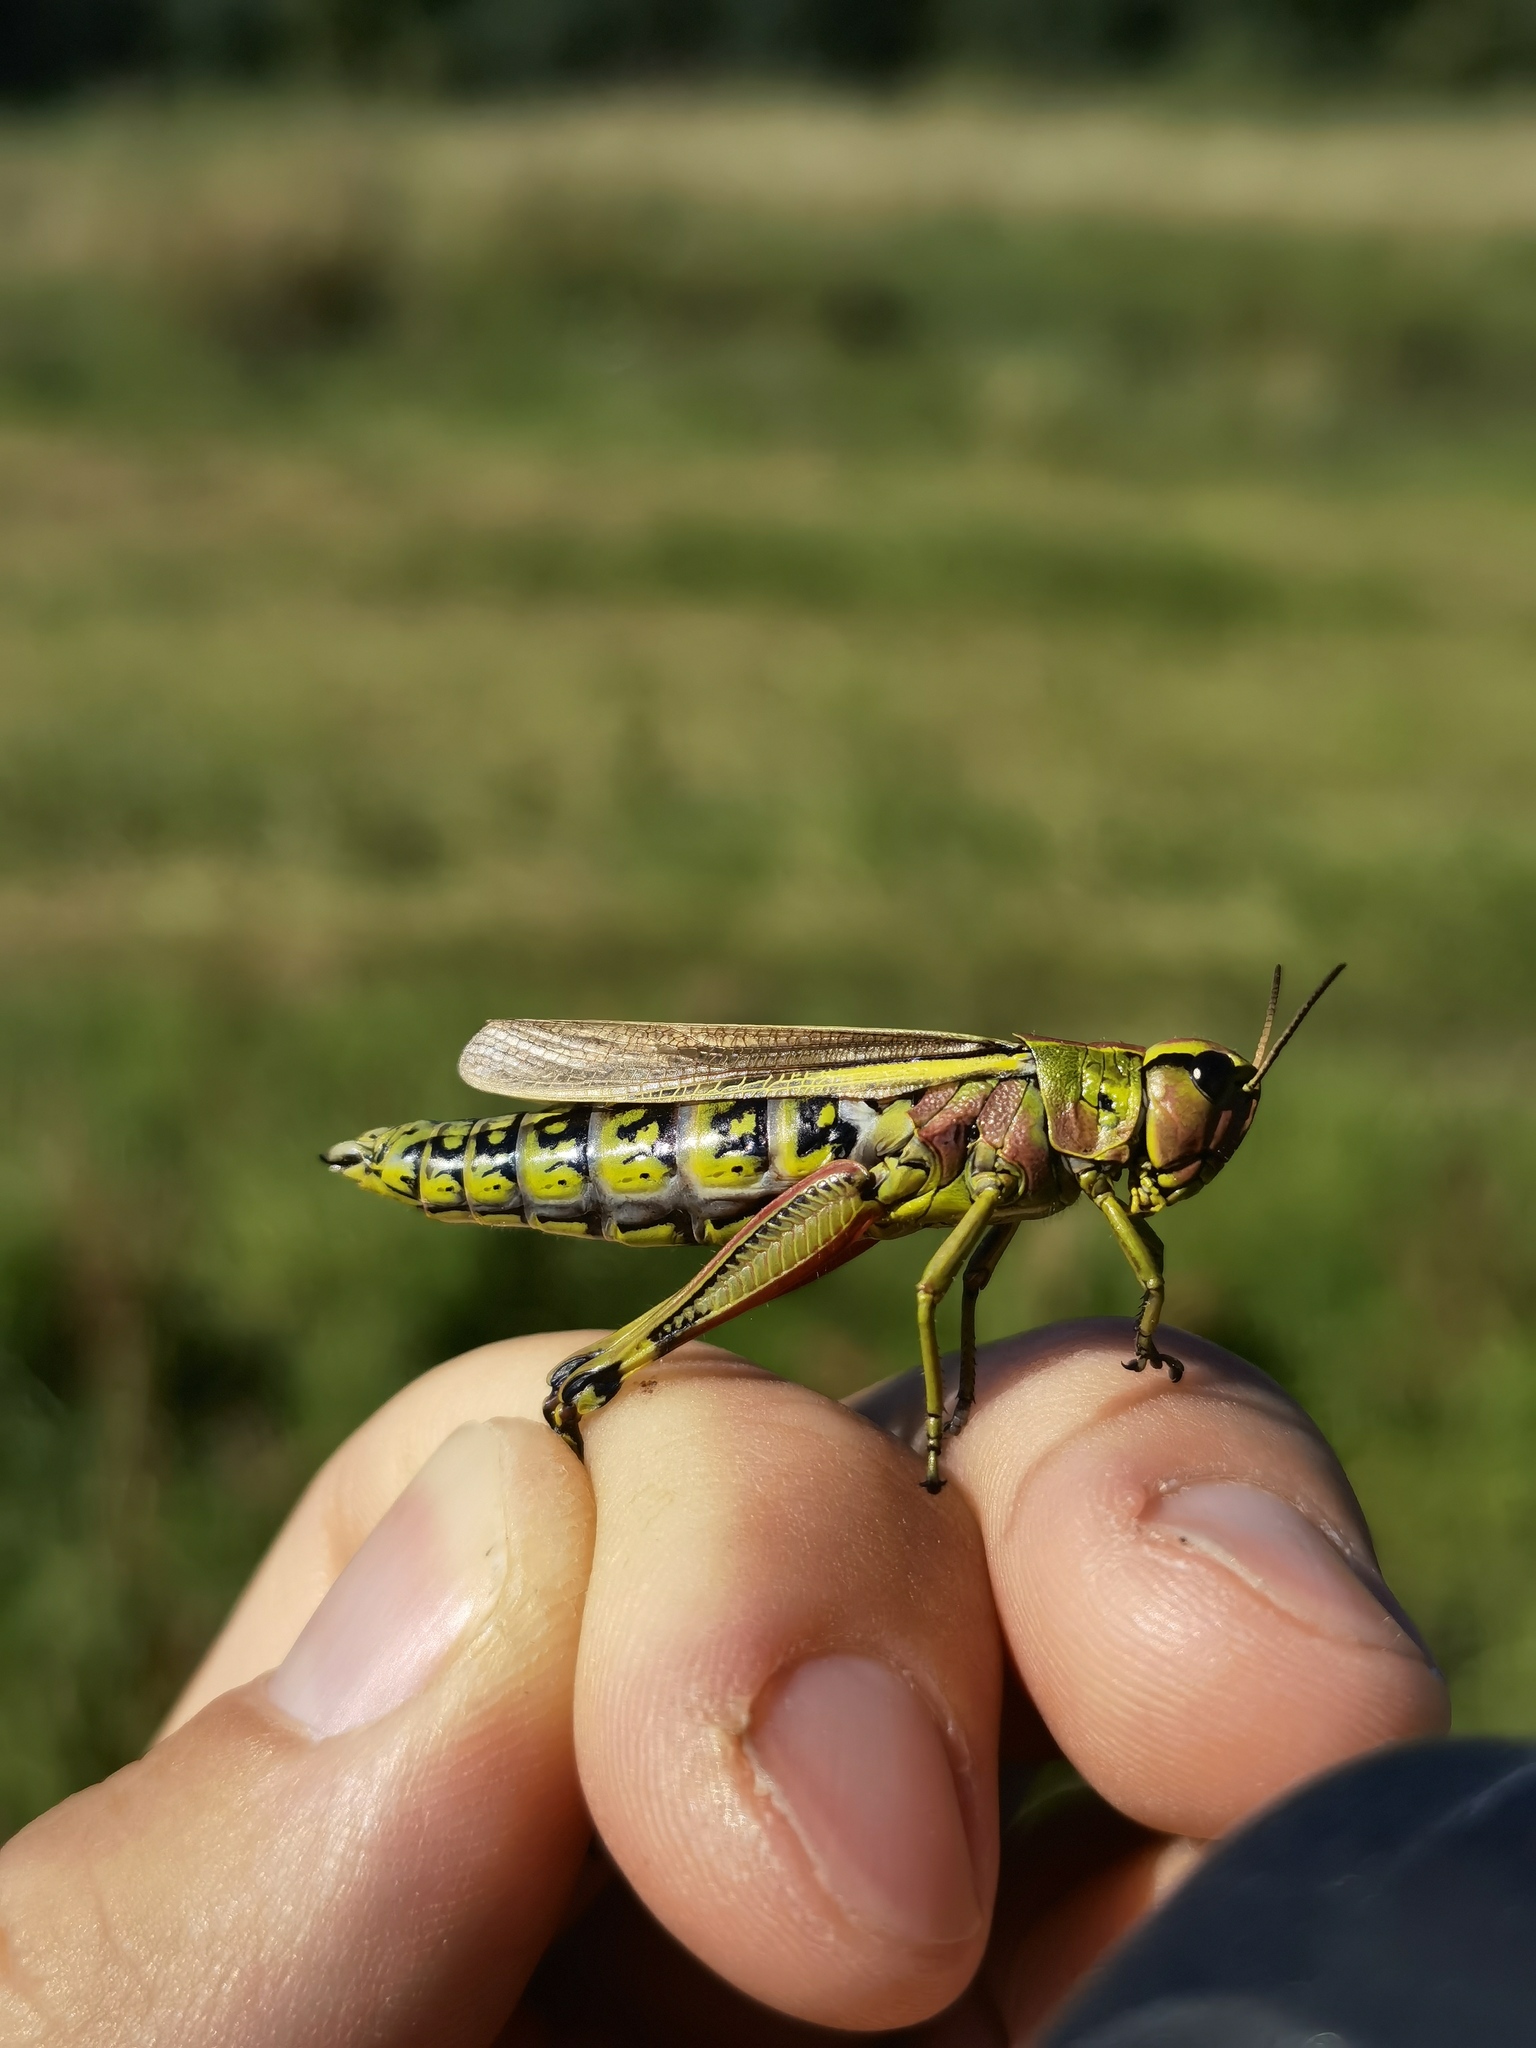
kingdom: Animalia
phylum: Arthropoda
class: Insecta
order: Orthoptera
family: Acrididae
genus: Stethophyma
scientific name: Stethophyma grossum
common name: Large marsh grasshopper
